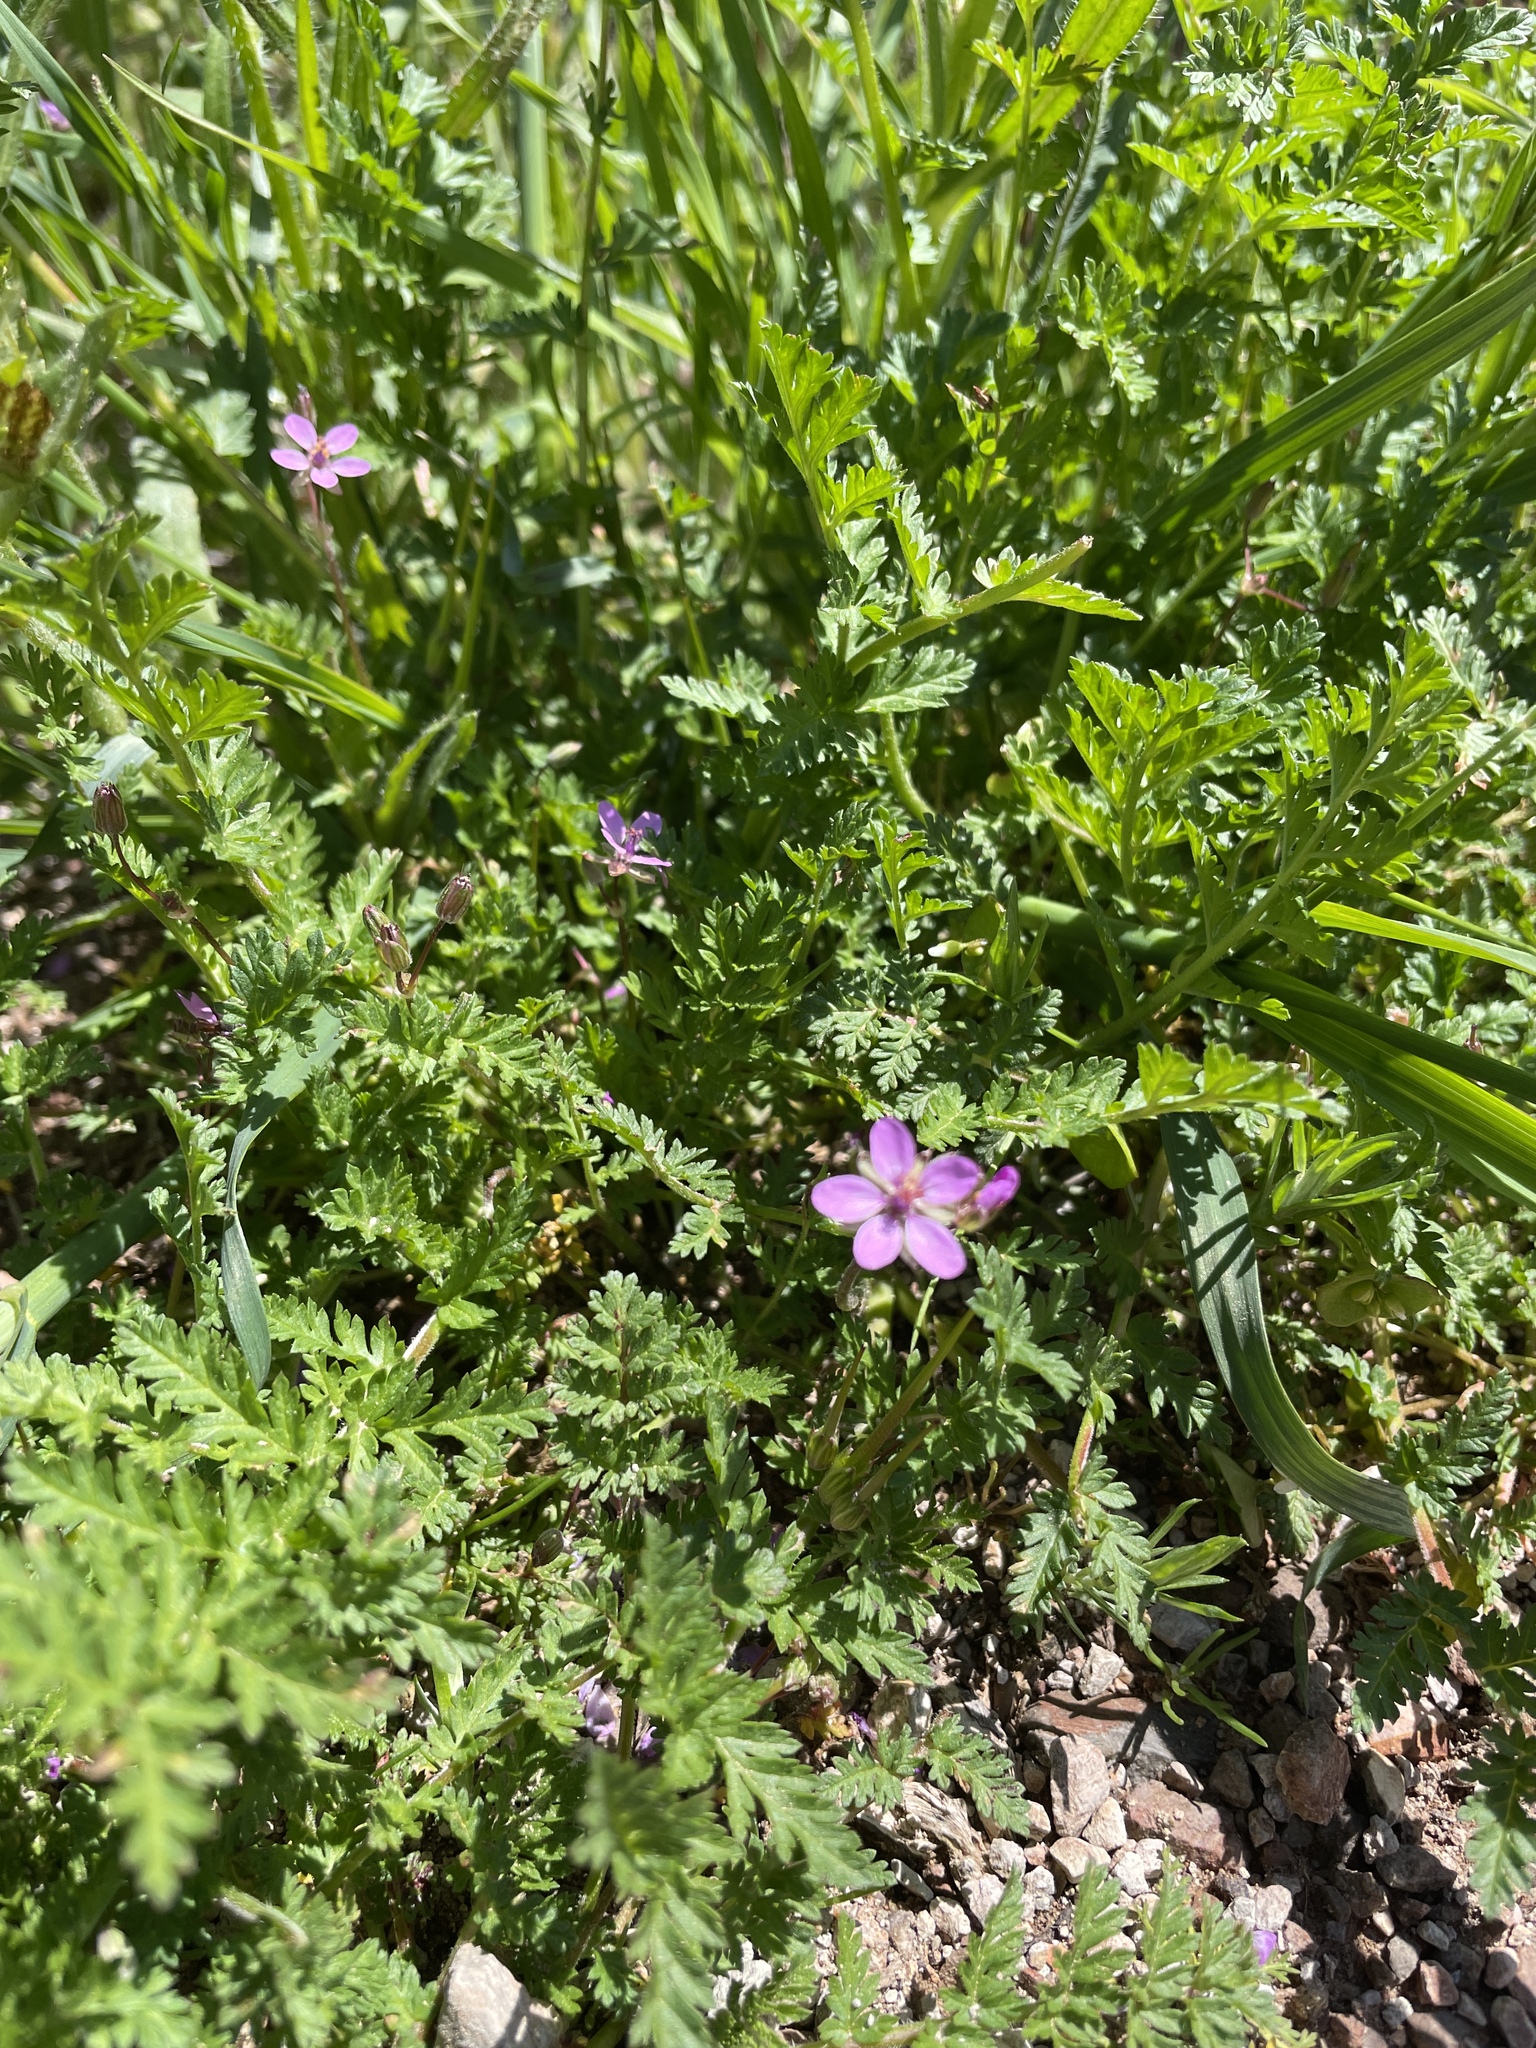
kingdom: Plantae
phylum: Tracheophyta
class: Magnoliopsida
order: Geraniales
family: Geraniaceae
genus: Erodium
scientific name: Erodium cicutarium
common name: Common stork's-bill
